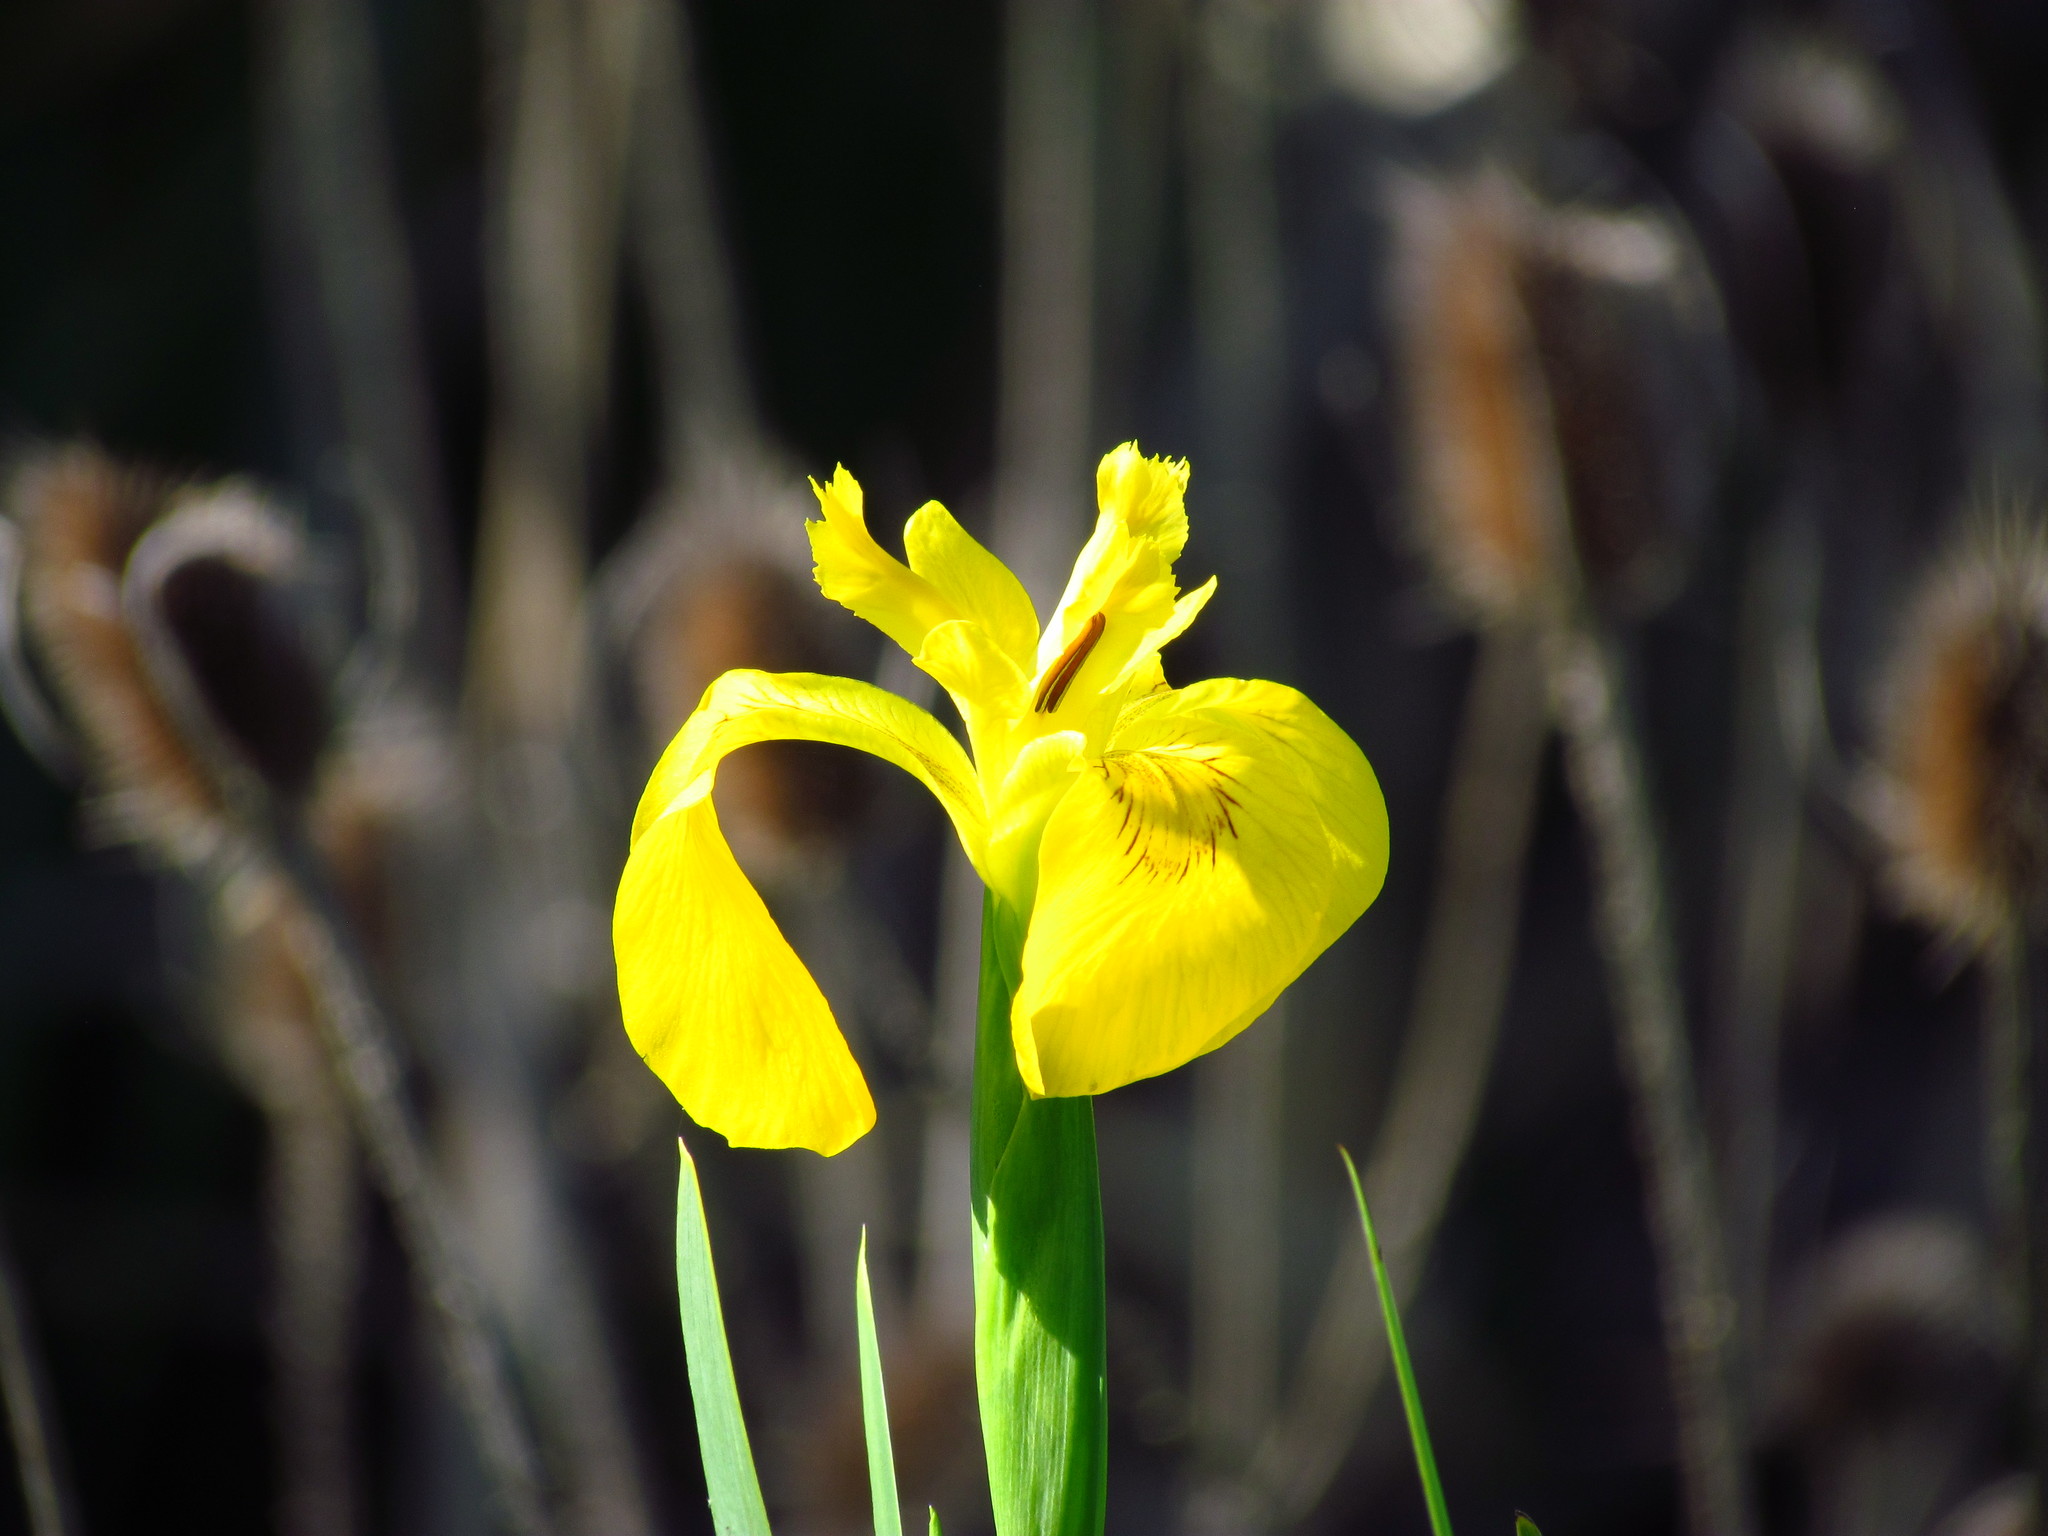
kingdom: Plantae
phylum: Tracheophyta
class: Liliopsida
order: Asparagales
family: Iridaceae
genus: Iris
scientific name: Iris pseudacorus
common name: Yellow flag
